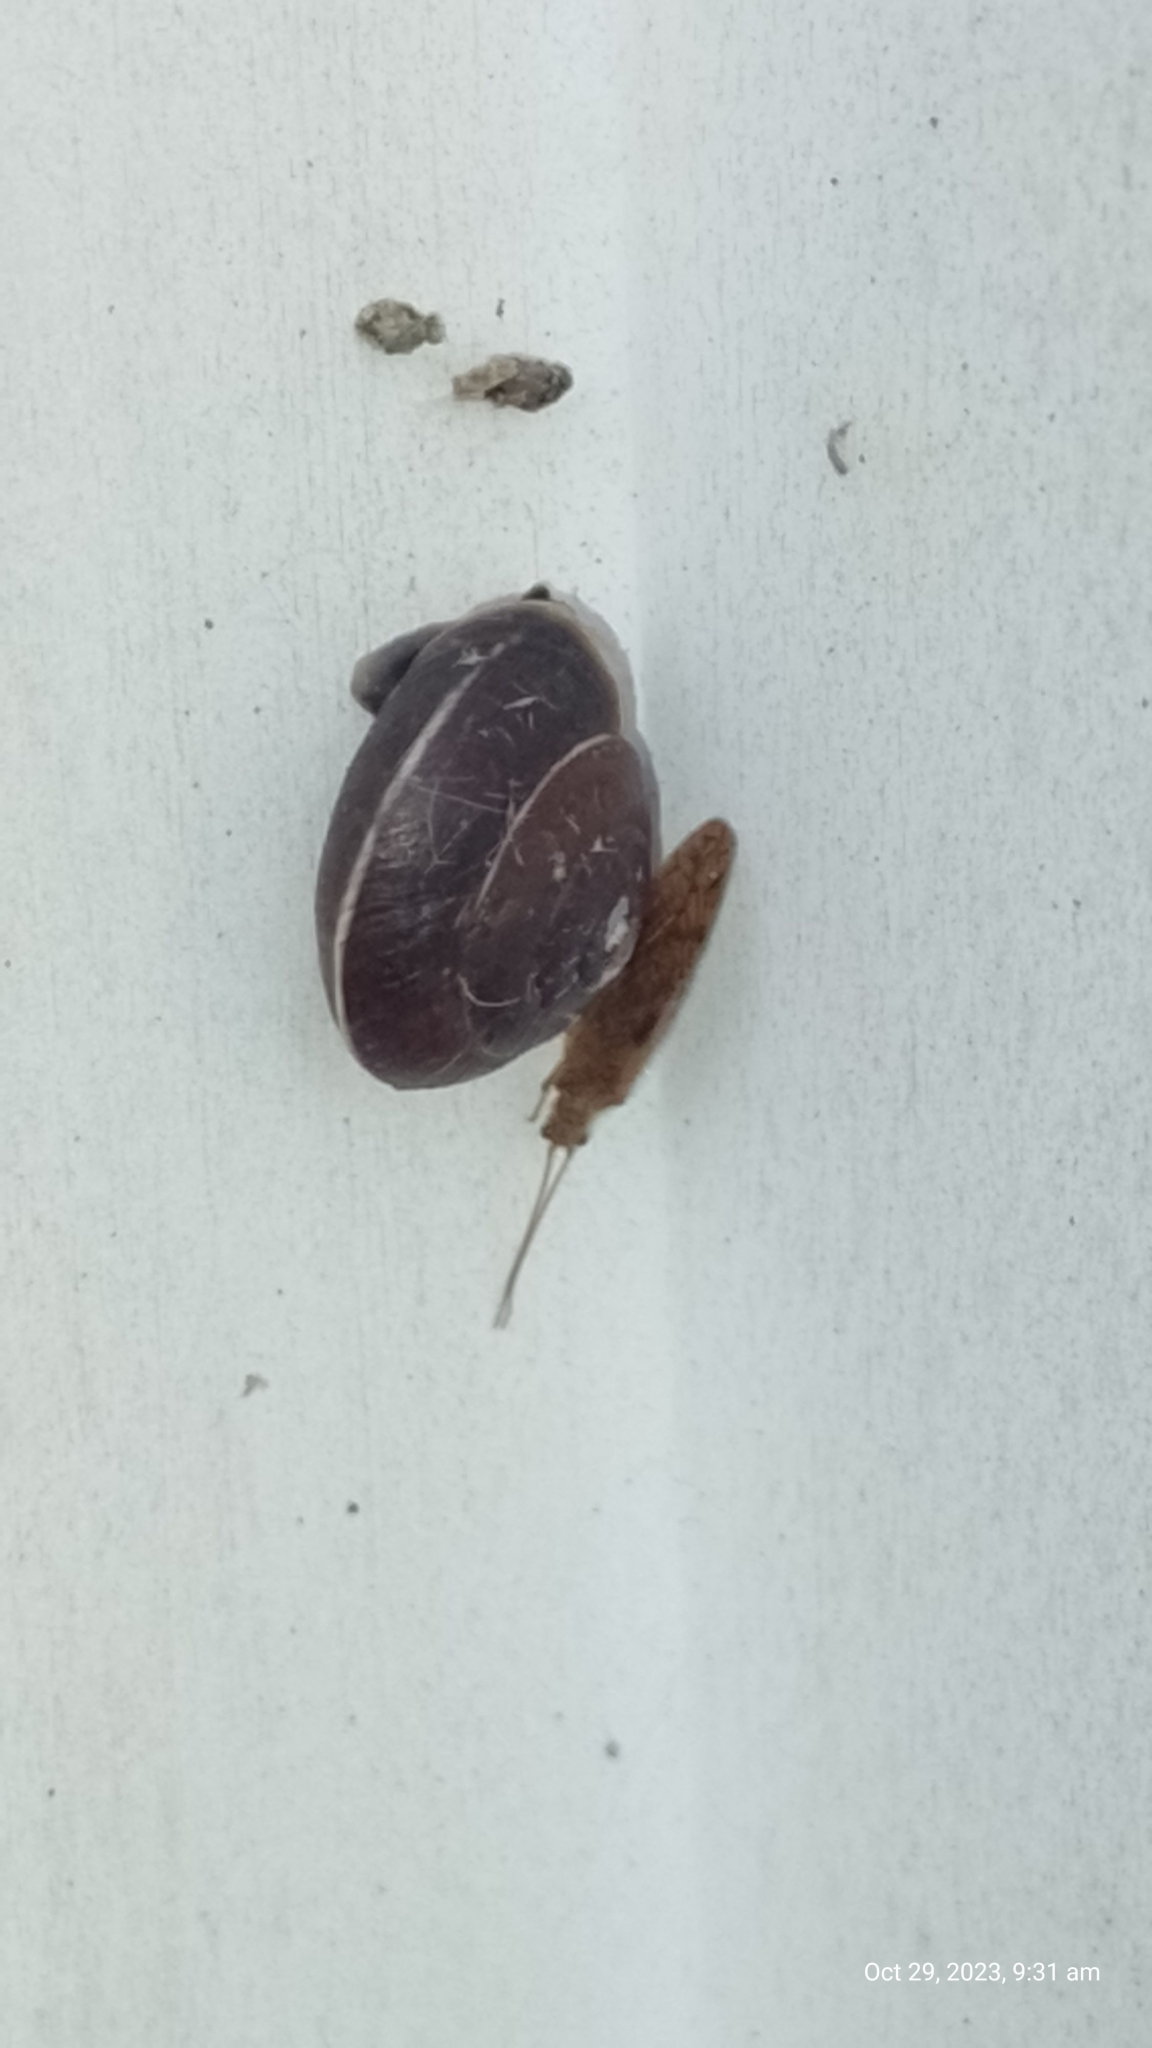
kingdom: Animalia
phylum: Mollusca
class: Gastropoda
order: Stylommatophora
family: Hygromiidae
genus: Hygromia
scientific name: Hygromia cinctella
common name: Girdled snail
